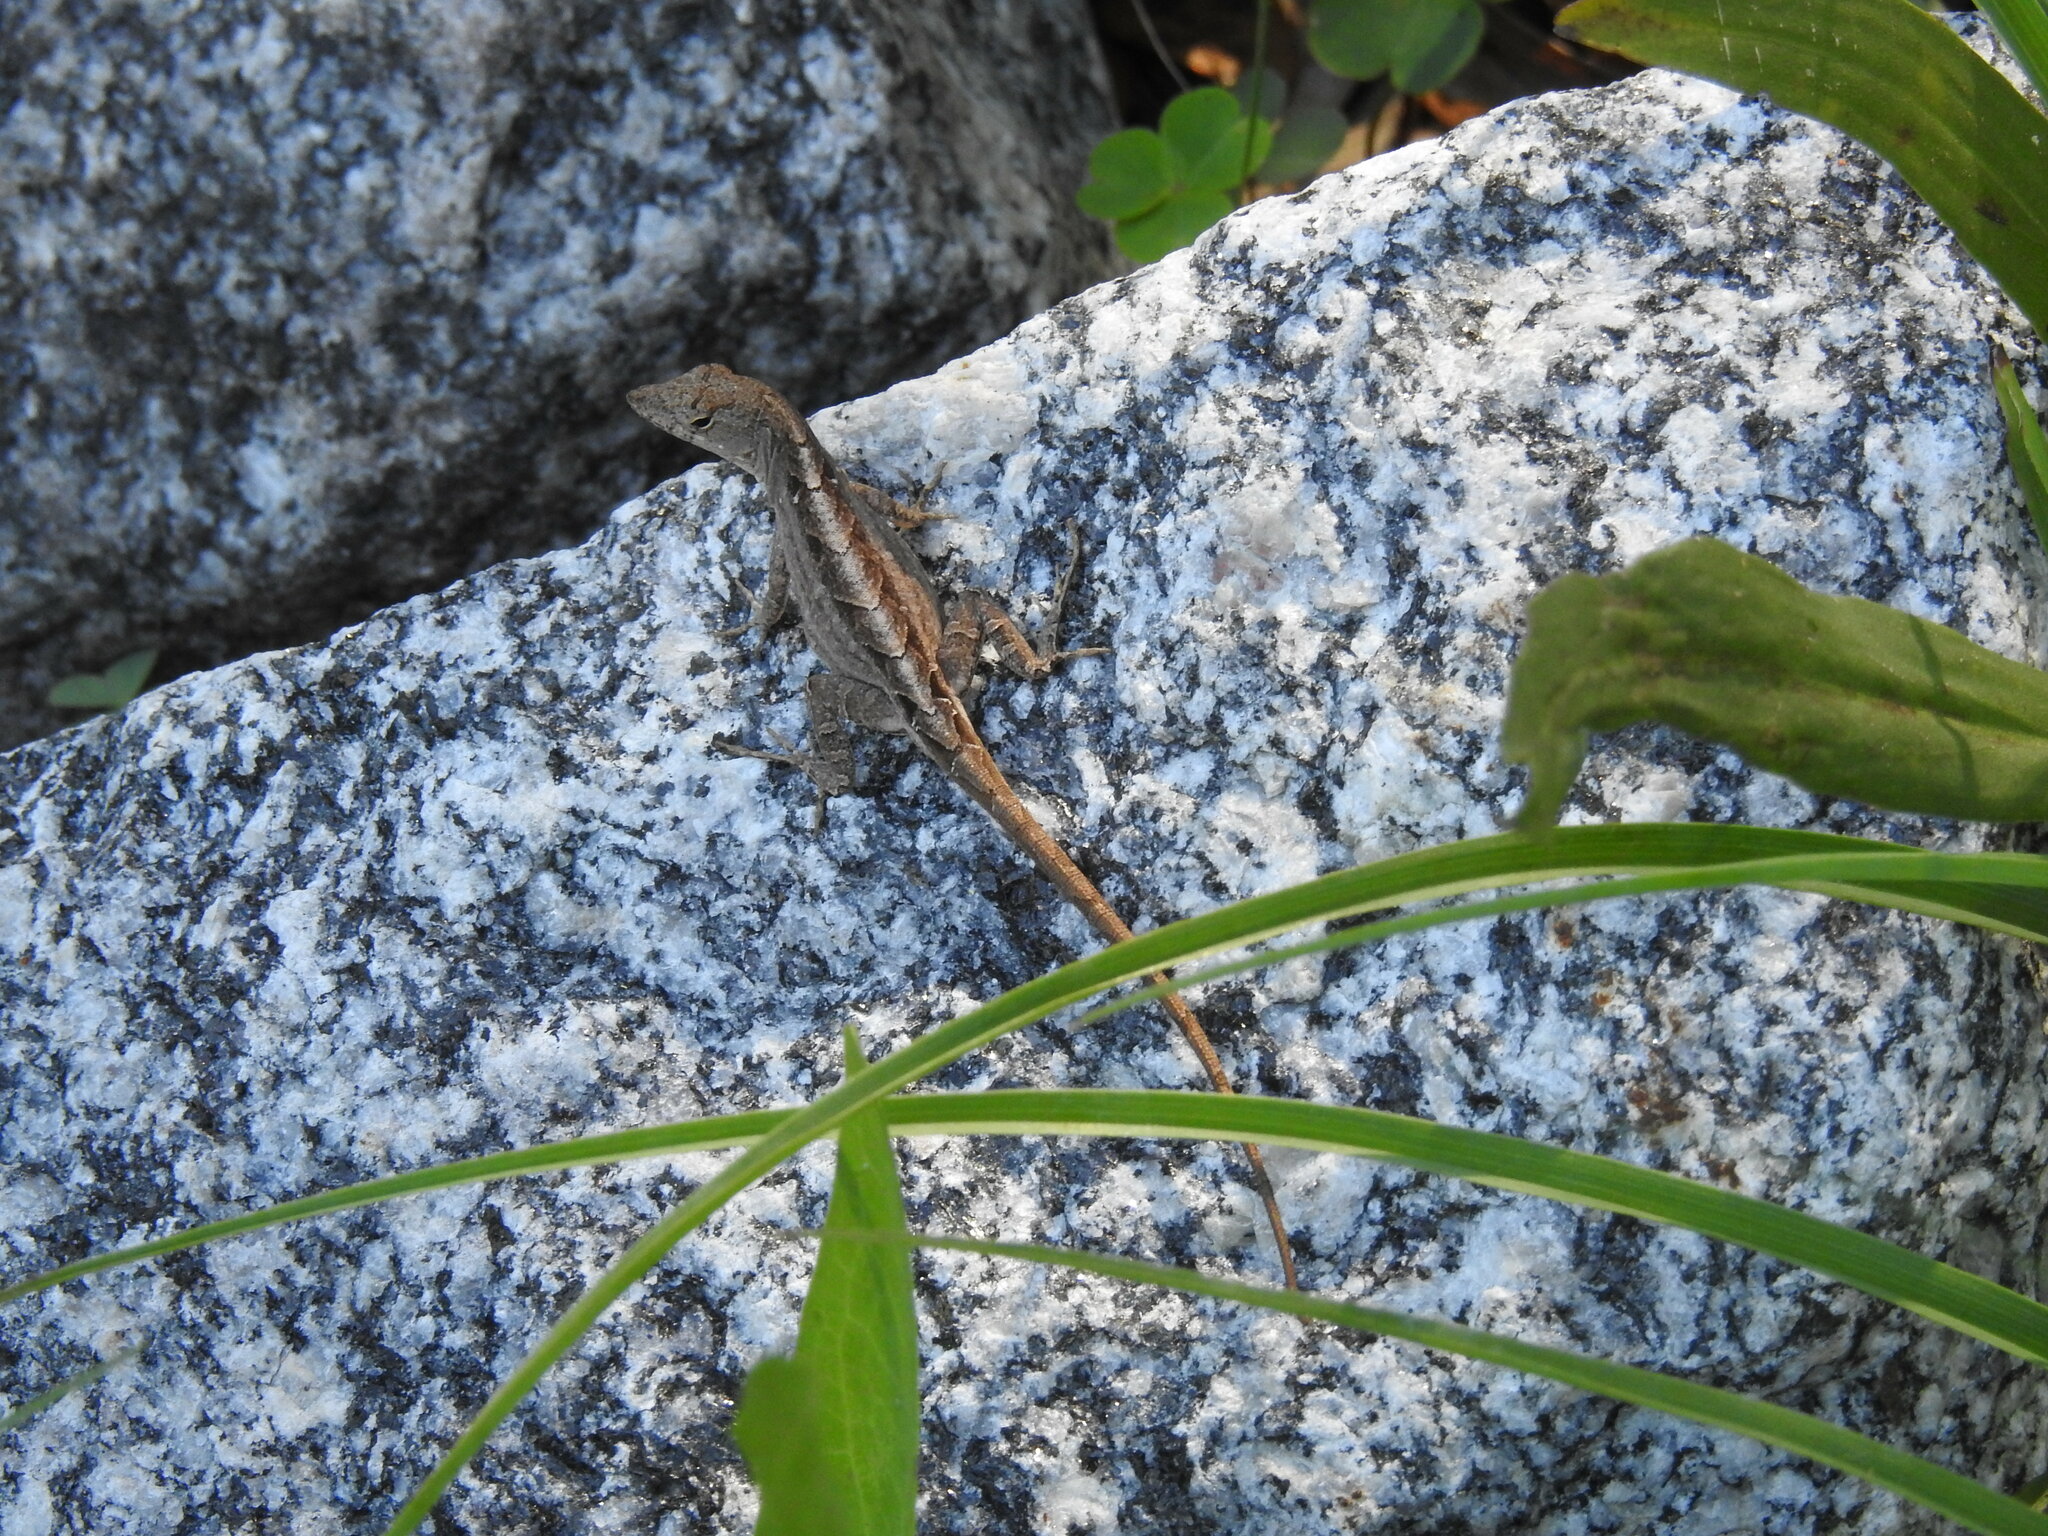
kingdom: Animalia
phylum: Chordata
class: Squamata
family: Dactyloidae
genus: Anolis
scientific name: Anolis sagrei
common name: Brown anole
